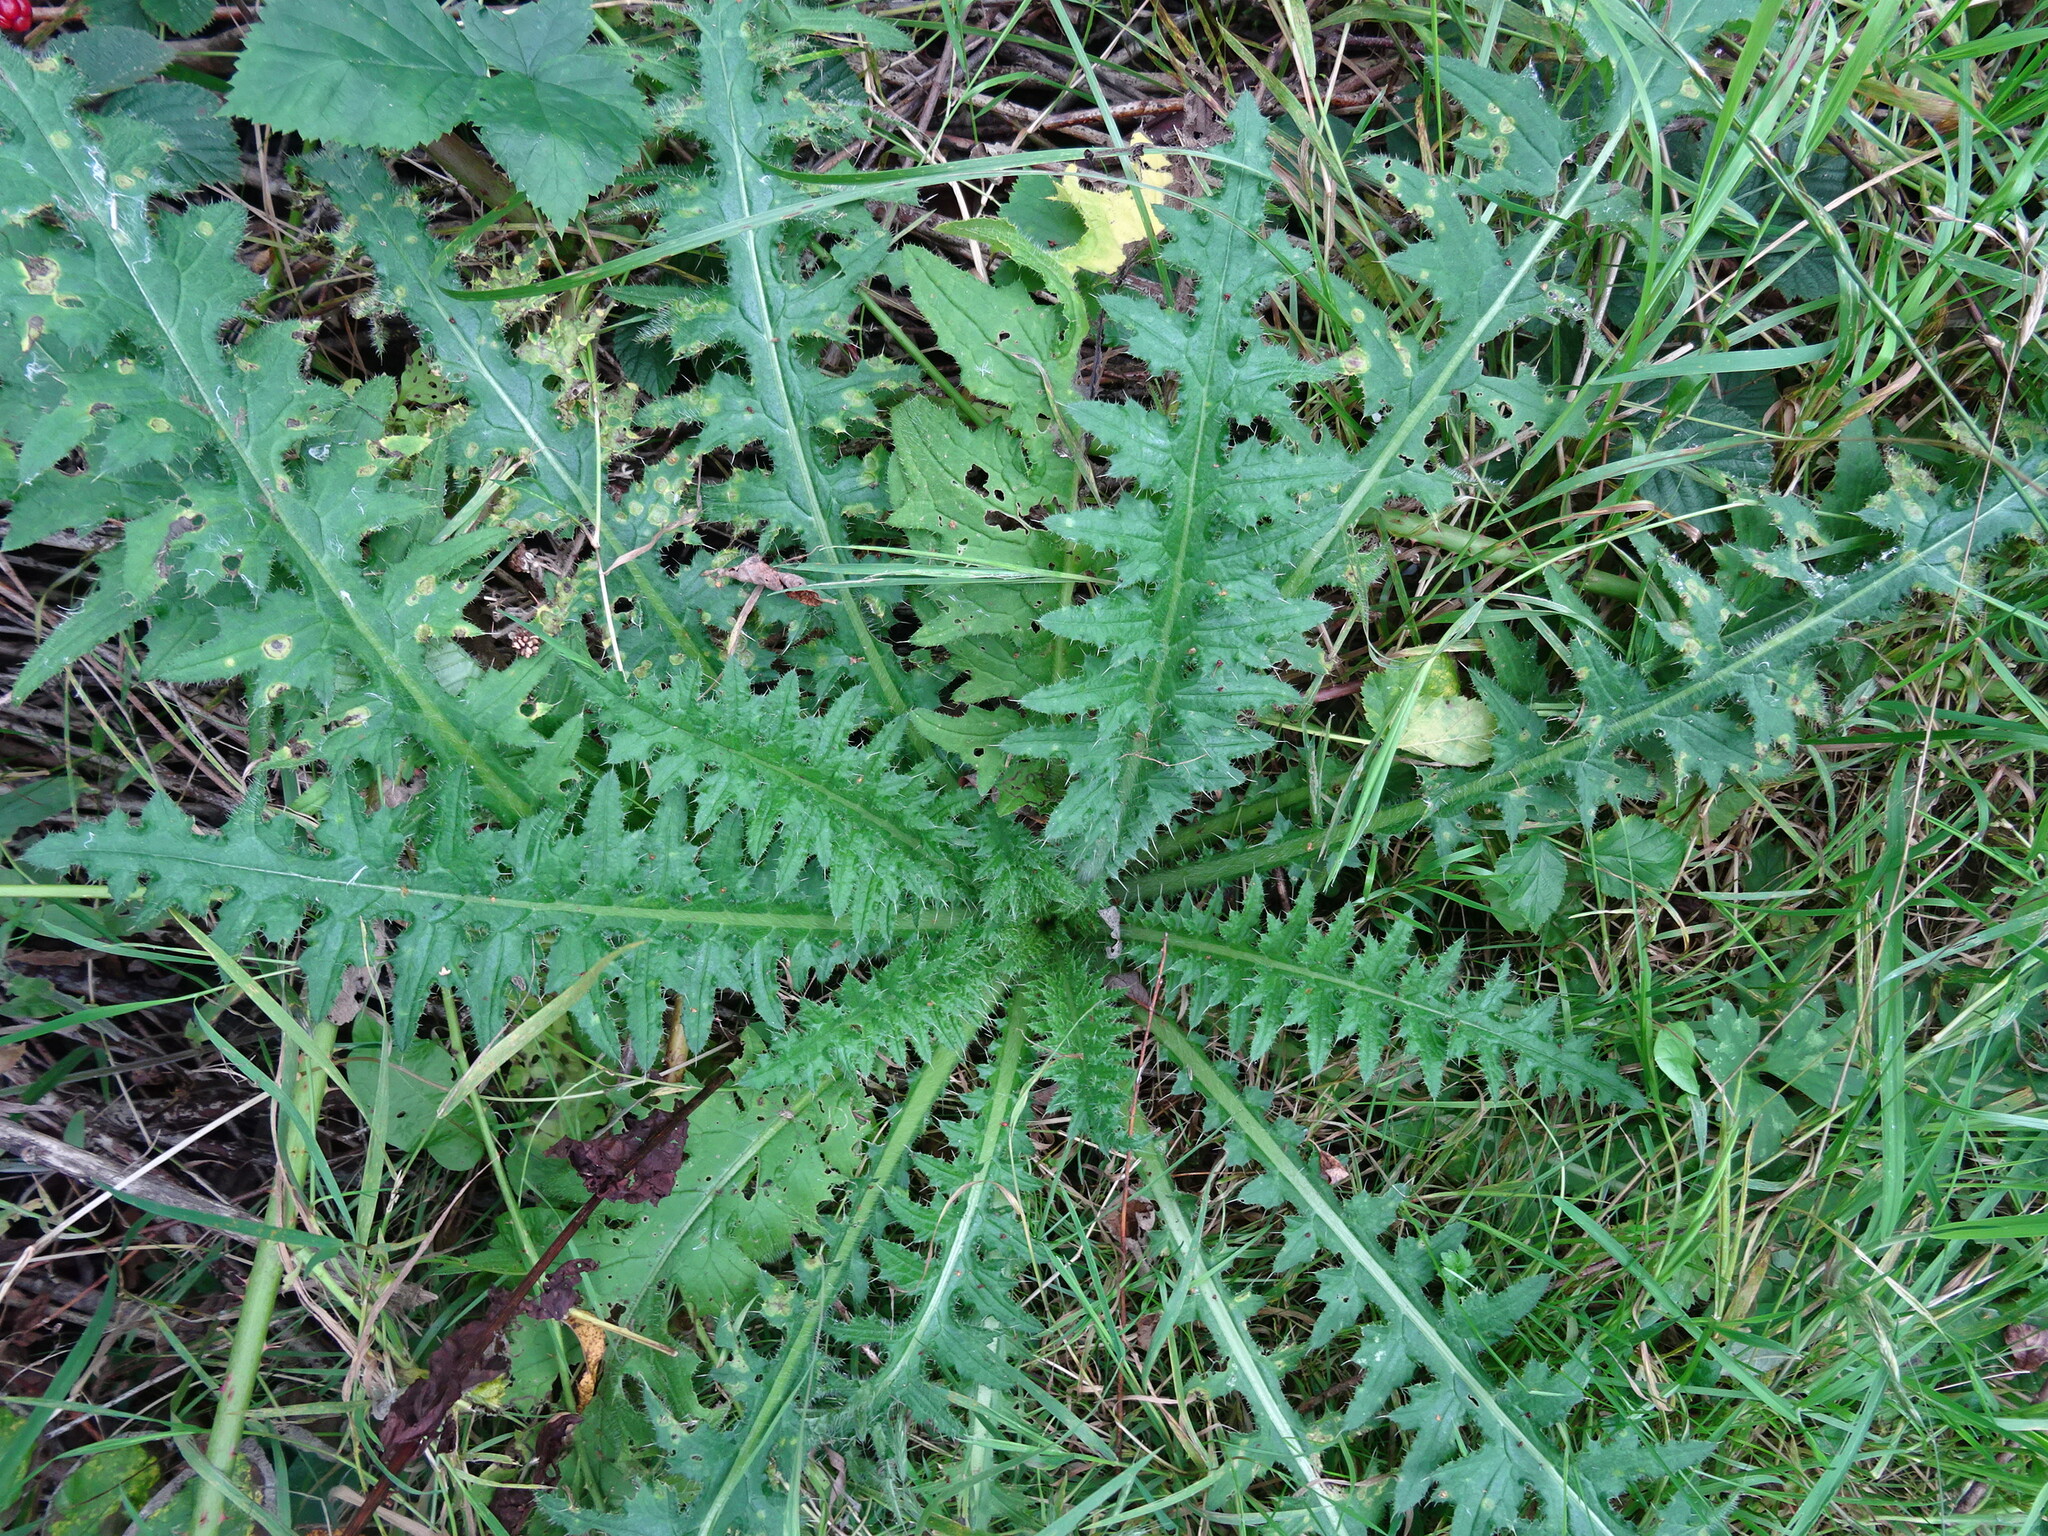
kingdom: Plantae
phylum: Tracheophyta
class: Magnoliopsida
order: Asterales
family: Asteraceae
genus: Cirsium
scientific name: Cirsium palustre
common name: Marsh thistle
